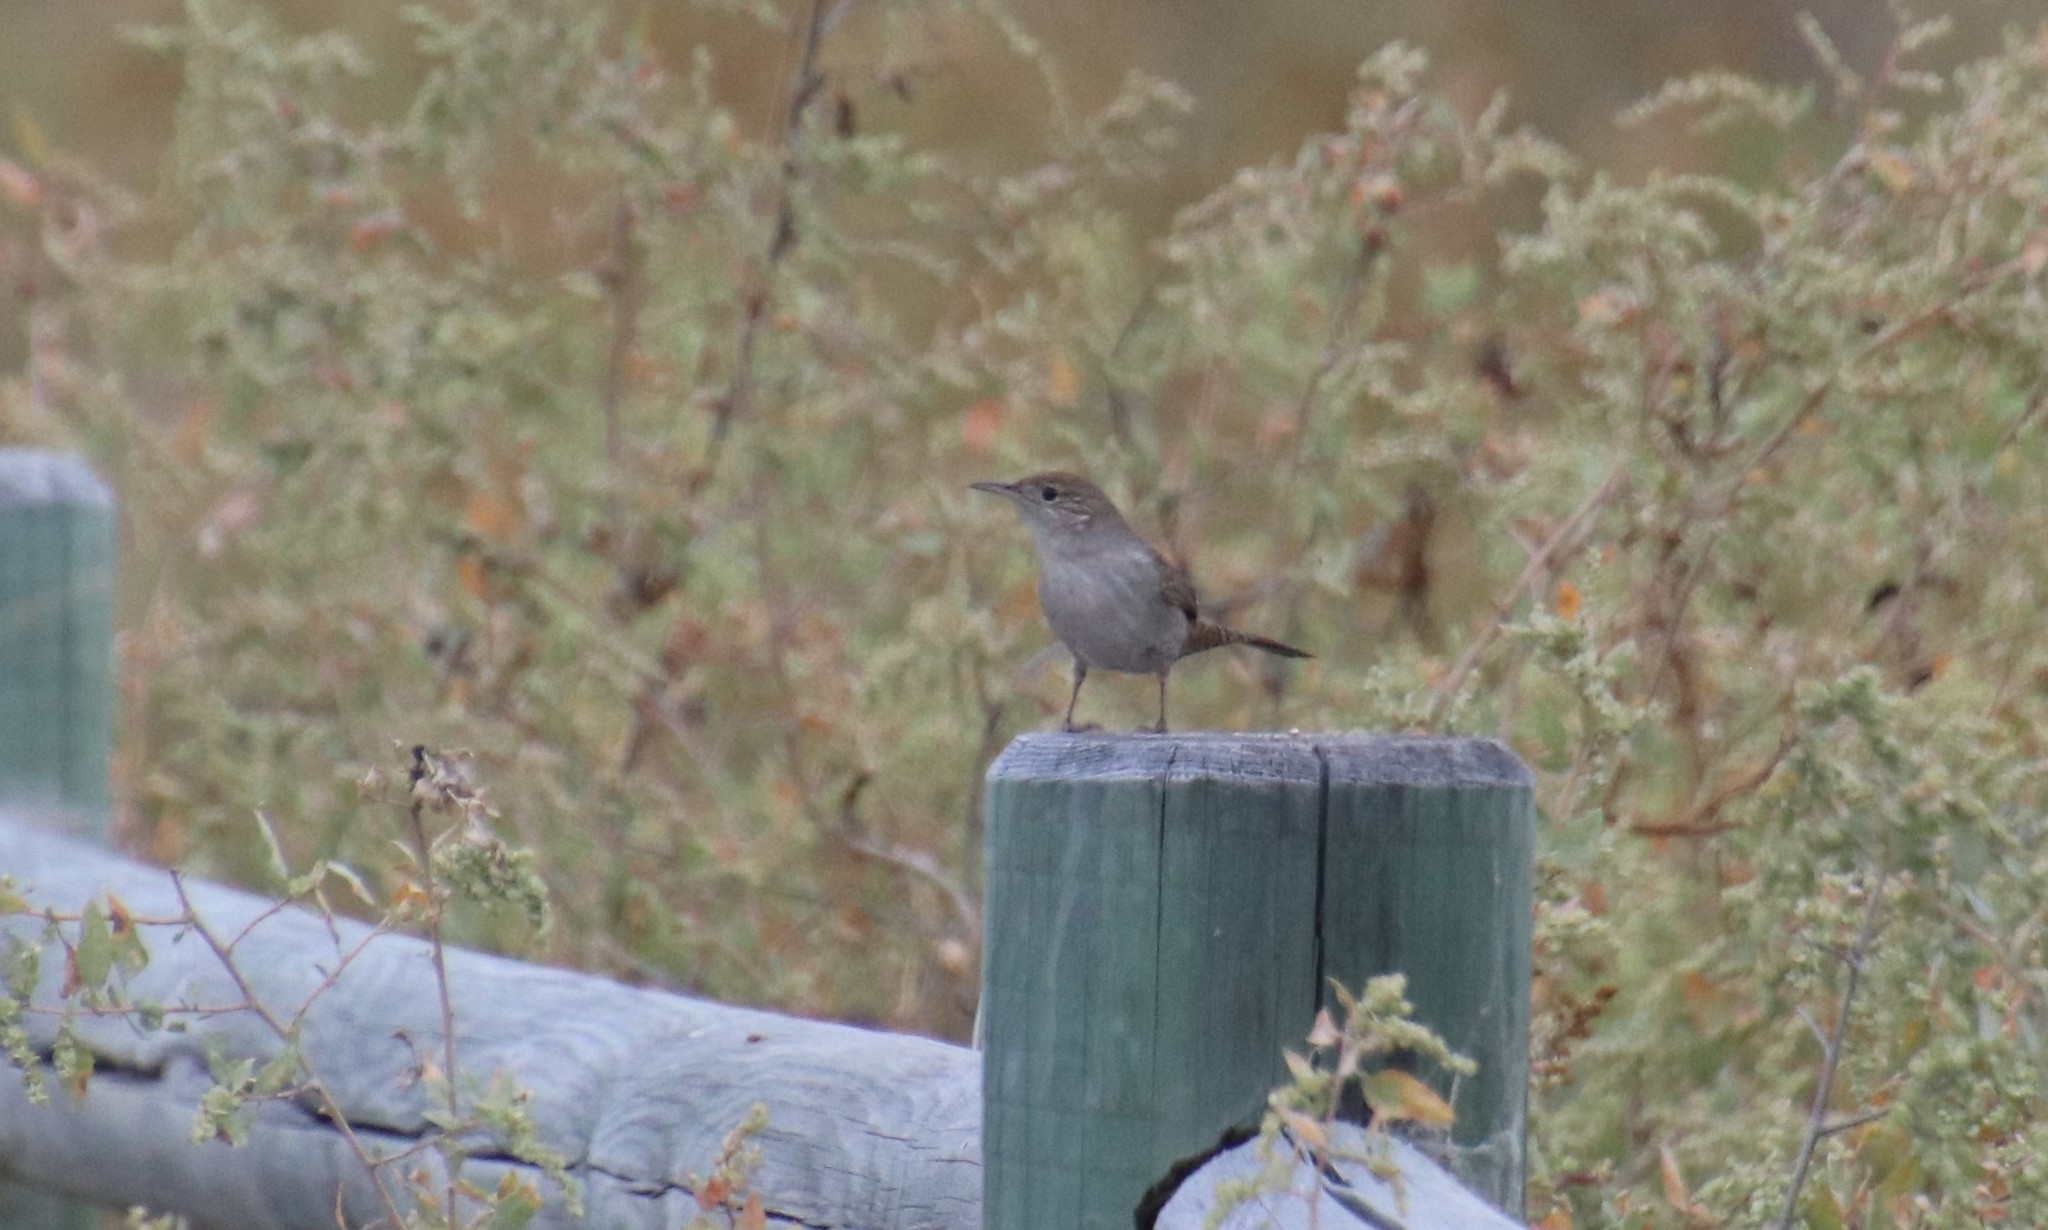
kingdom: Animalia
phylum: Chordata
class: Aves
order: Passeriformes
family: Troglodytidae
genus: Troglodytes
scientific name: Troglodytes aedon
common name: House wren
